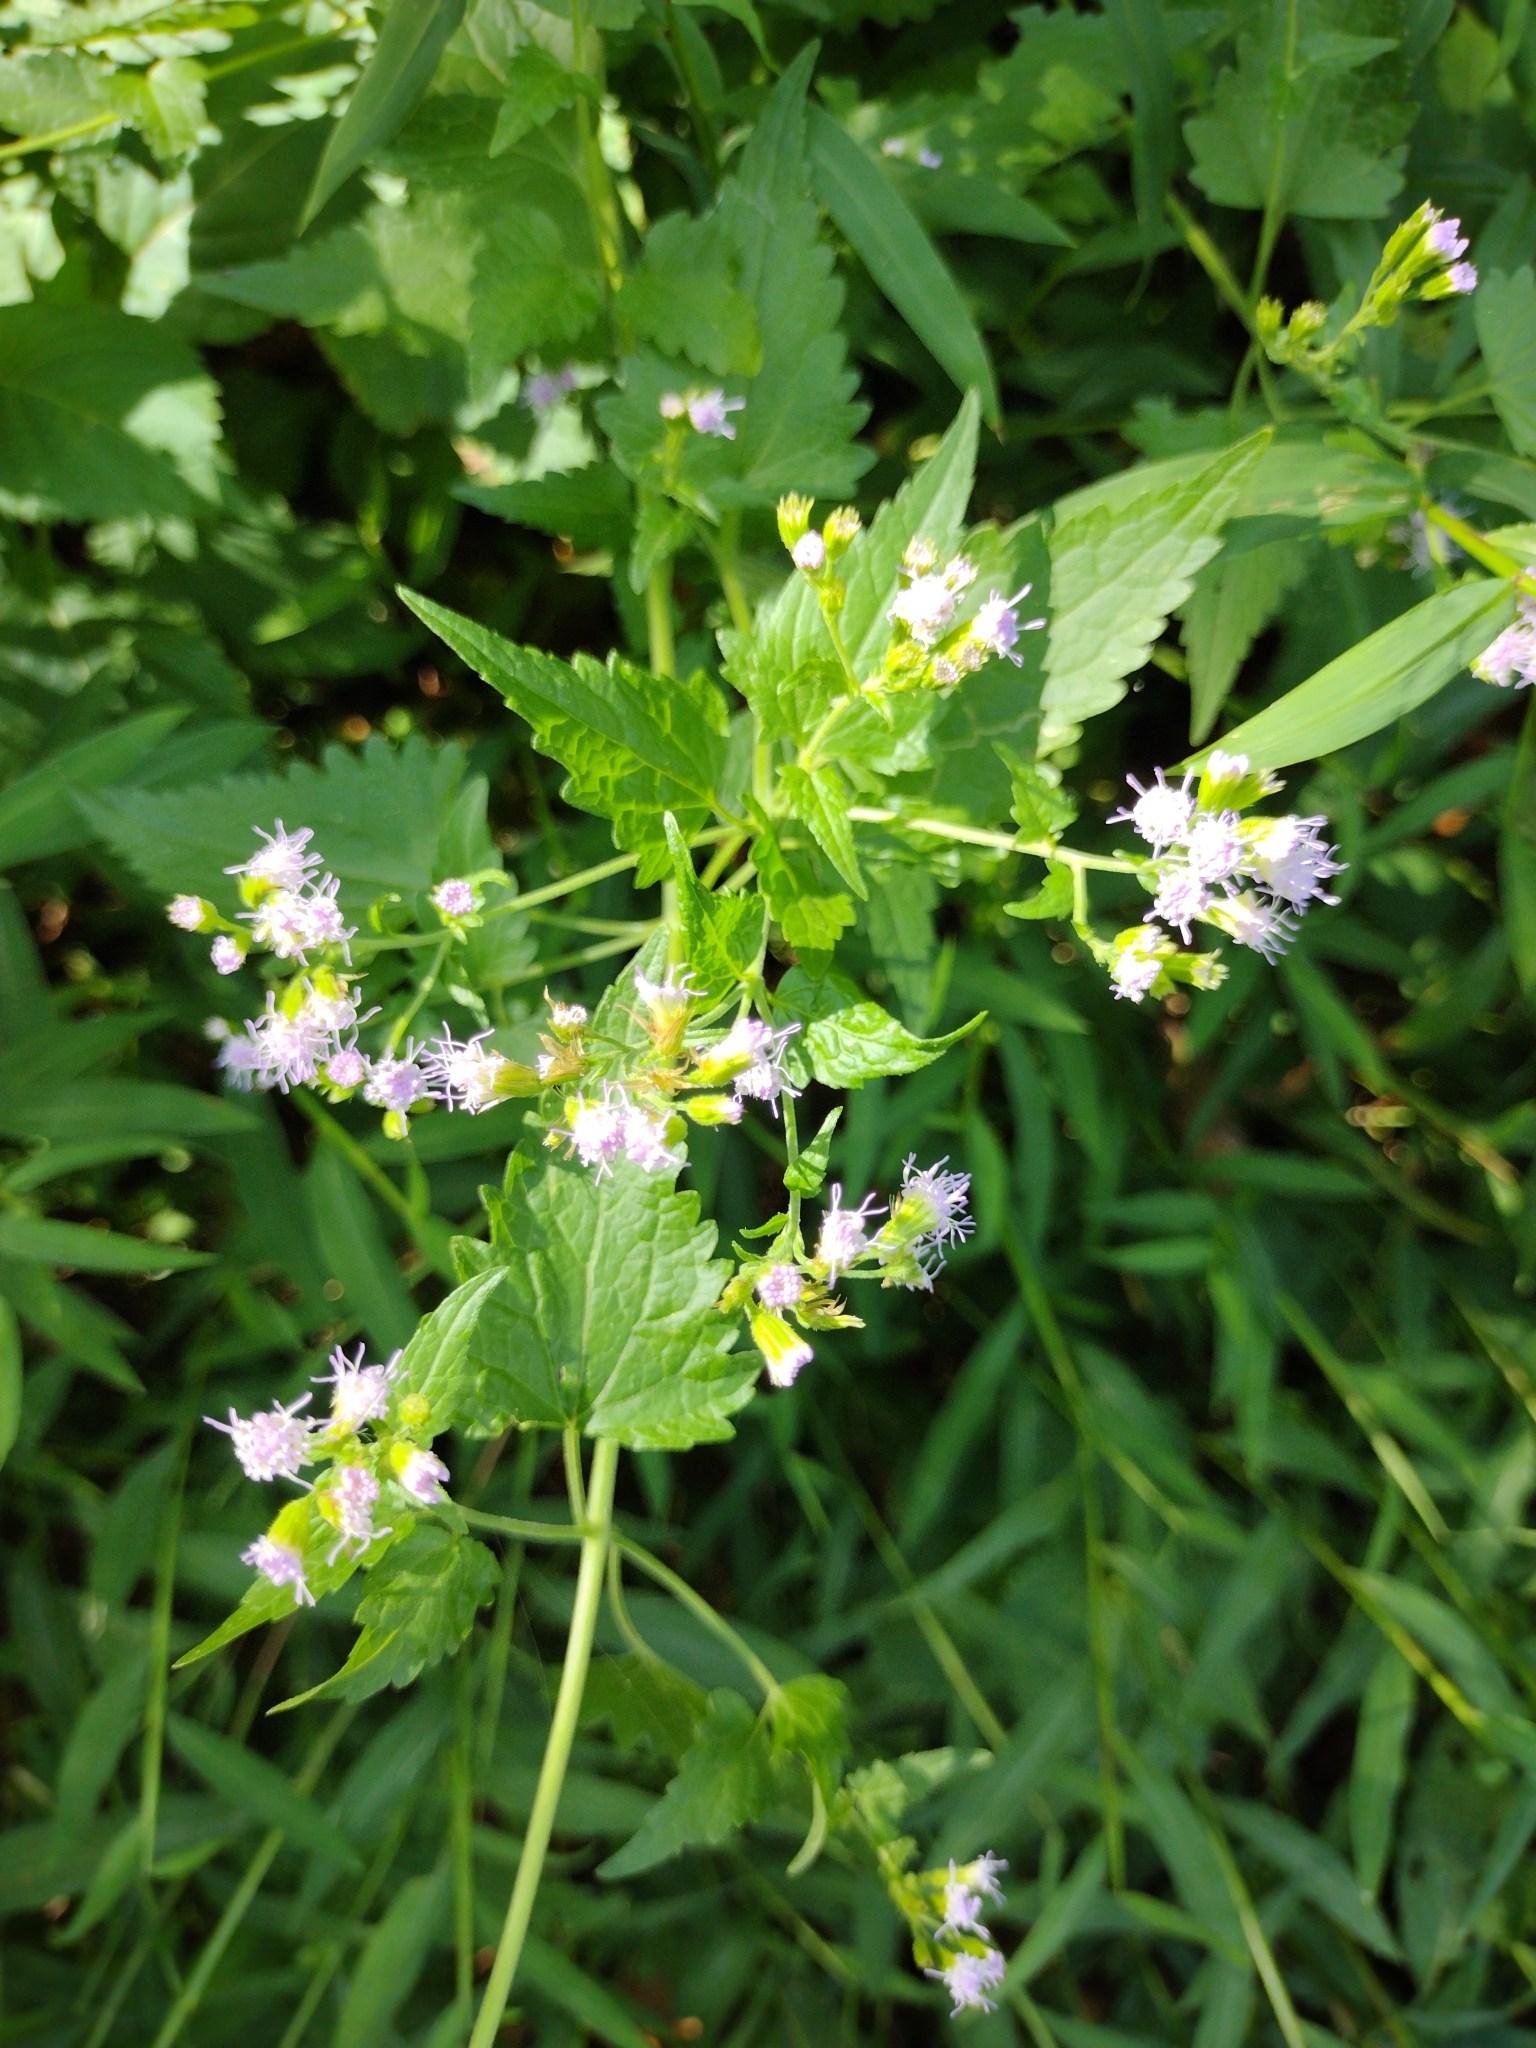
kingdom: Plantae
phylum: Tracheophyta
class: Magnoliopsida
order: Asterales
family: Asteraceae
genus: Fleischmannia
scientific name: Fleischmannia incarnata
